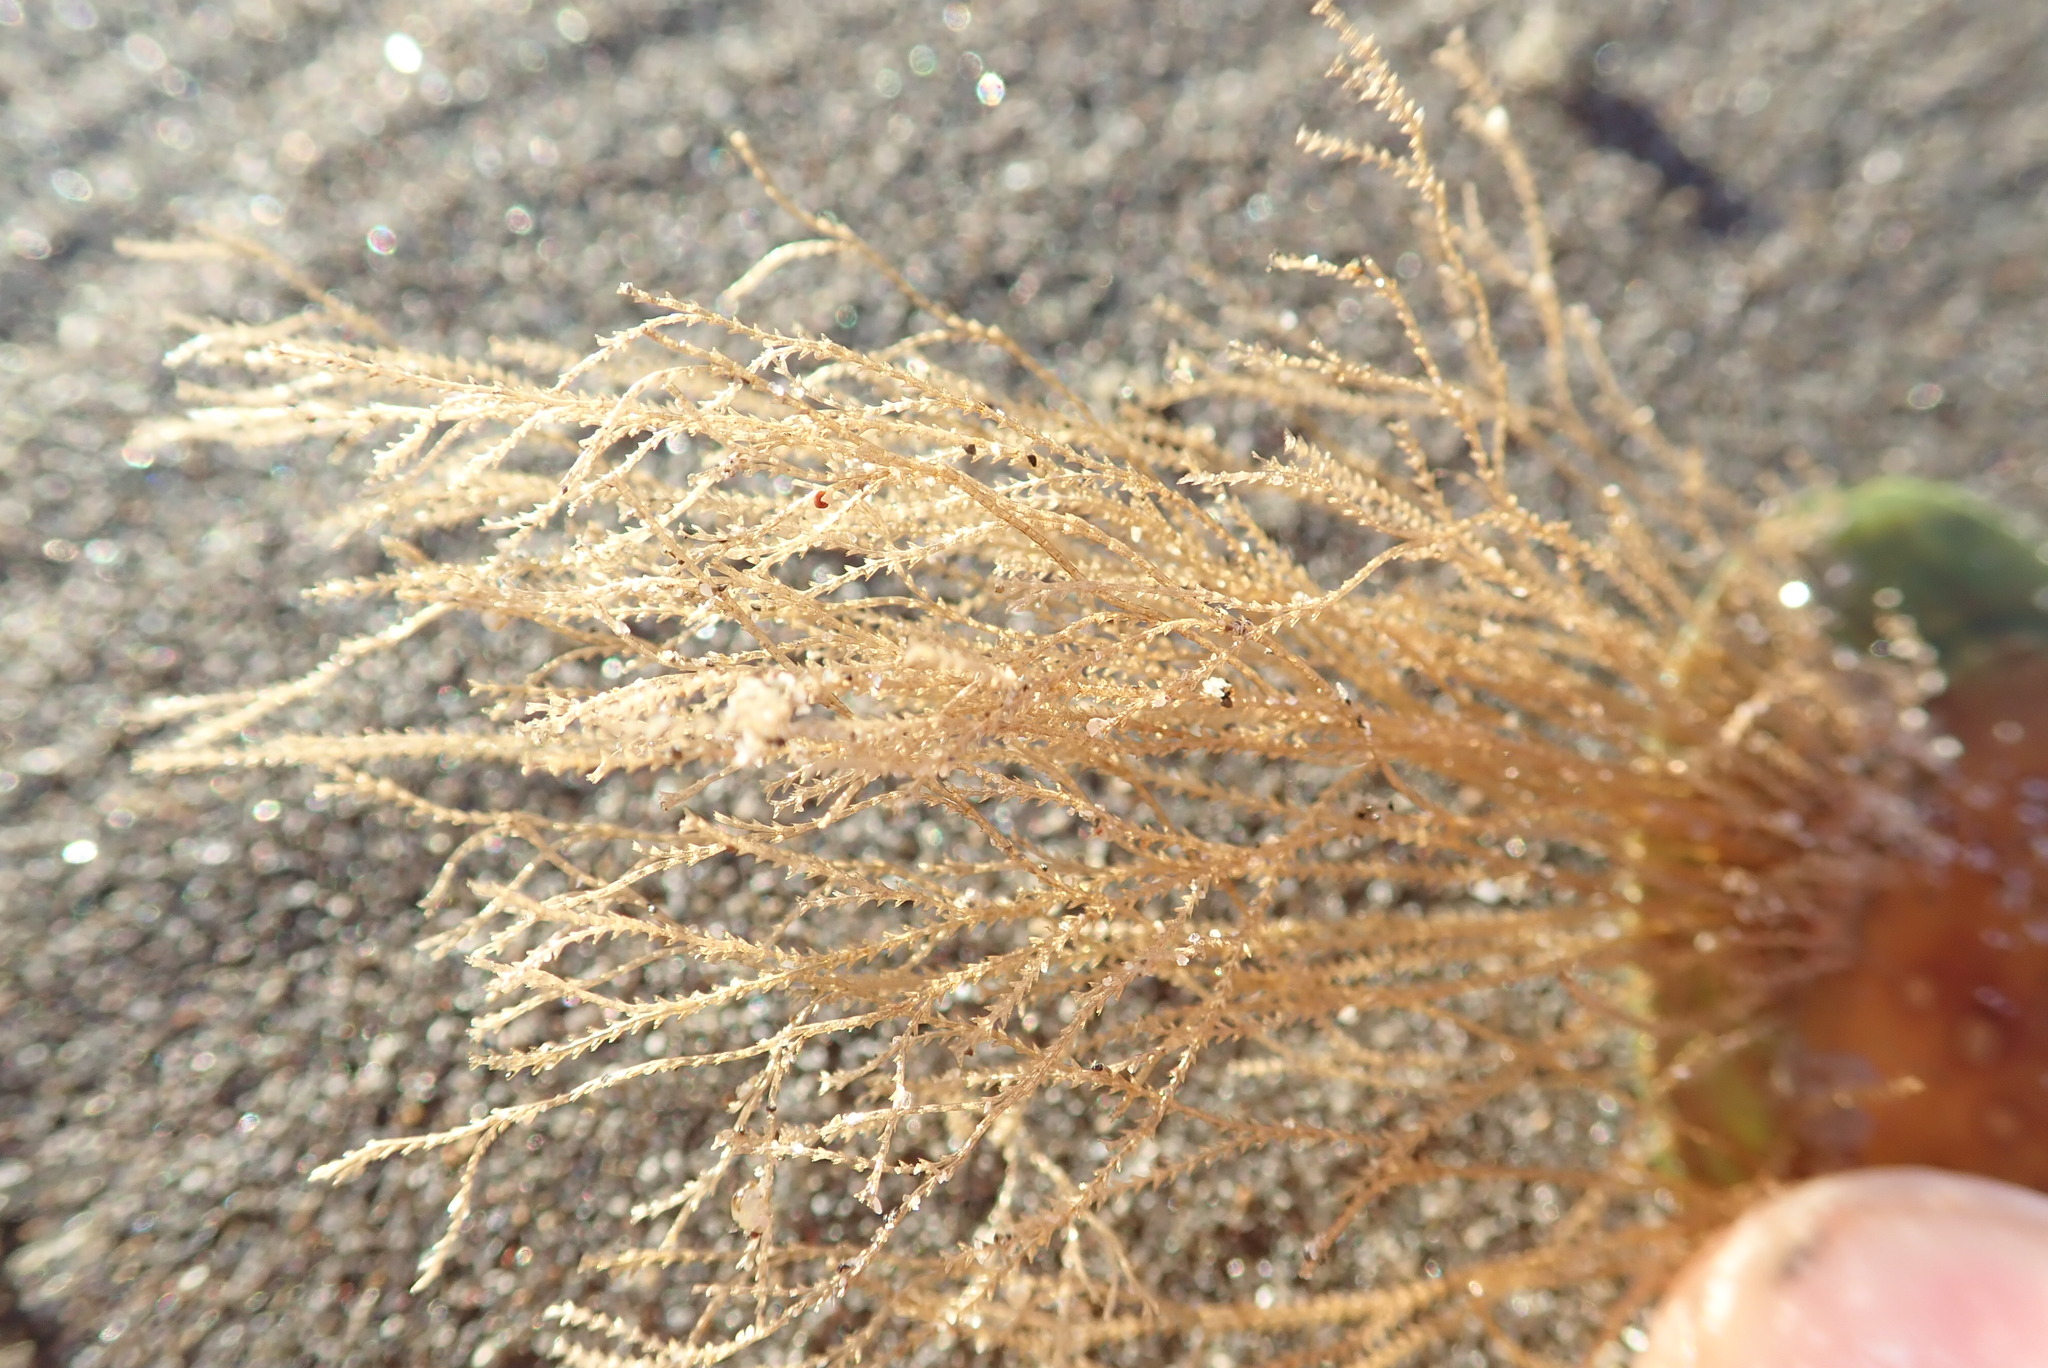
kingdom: Animalia
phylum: Cnidaria
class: Hydrozoa
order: Leptothecata
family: Sertulariidae
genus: Amphisbetia
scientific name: Amphisbetia bispinosa
